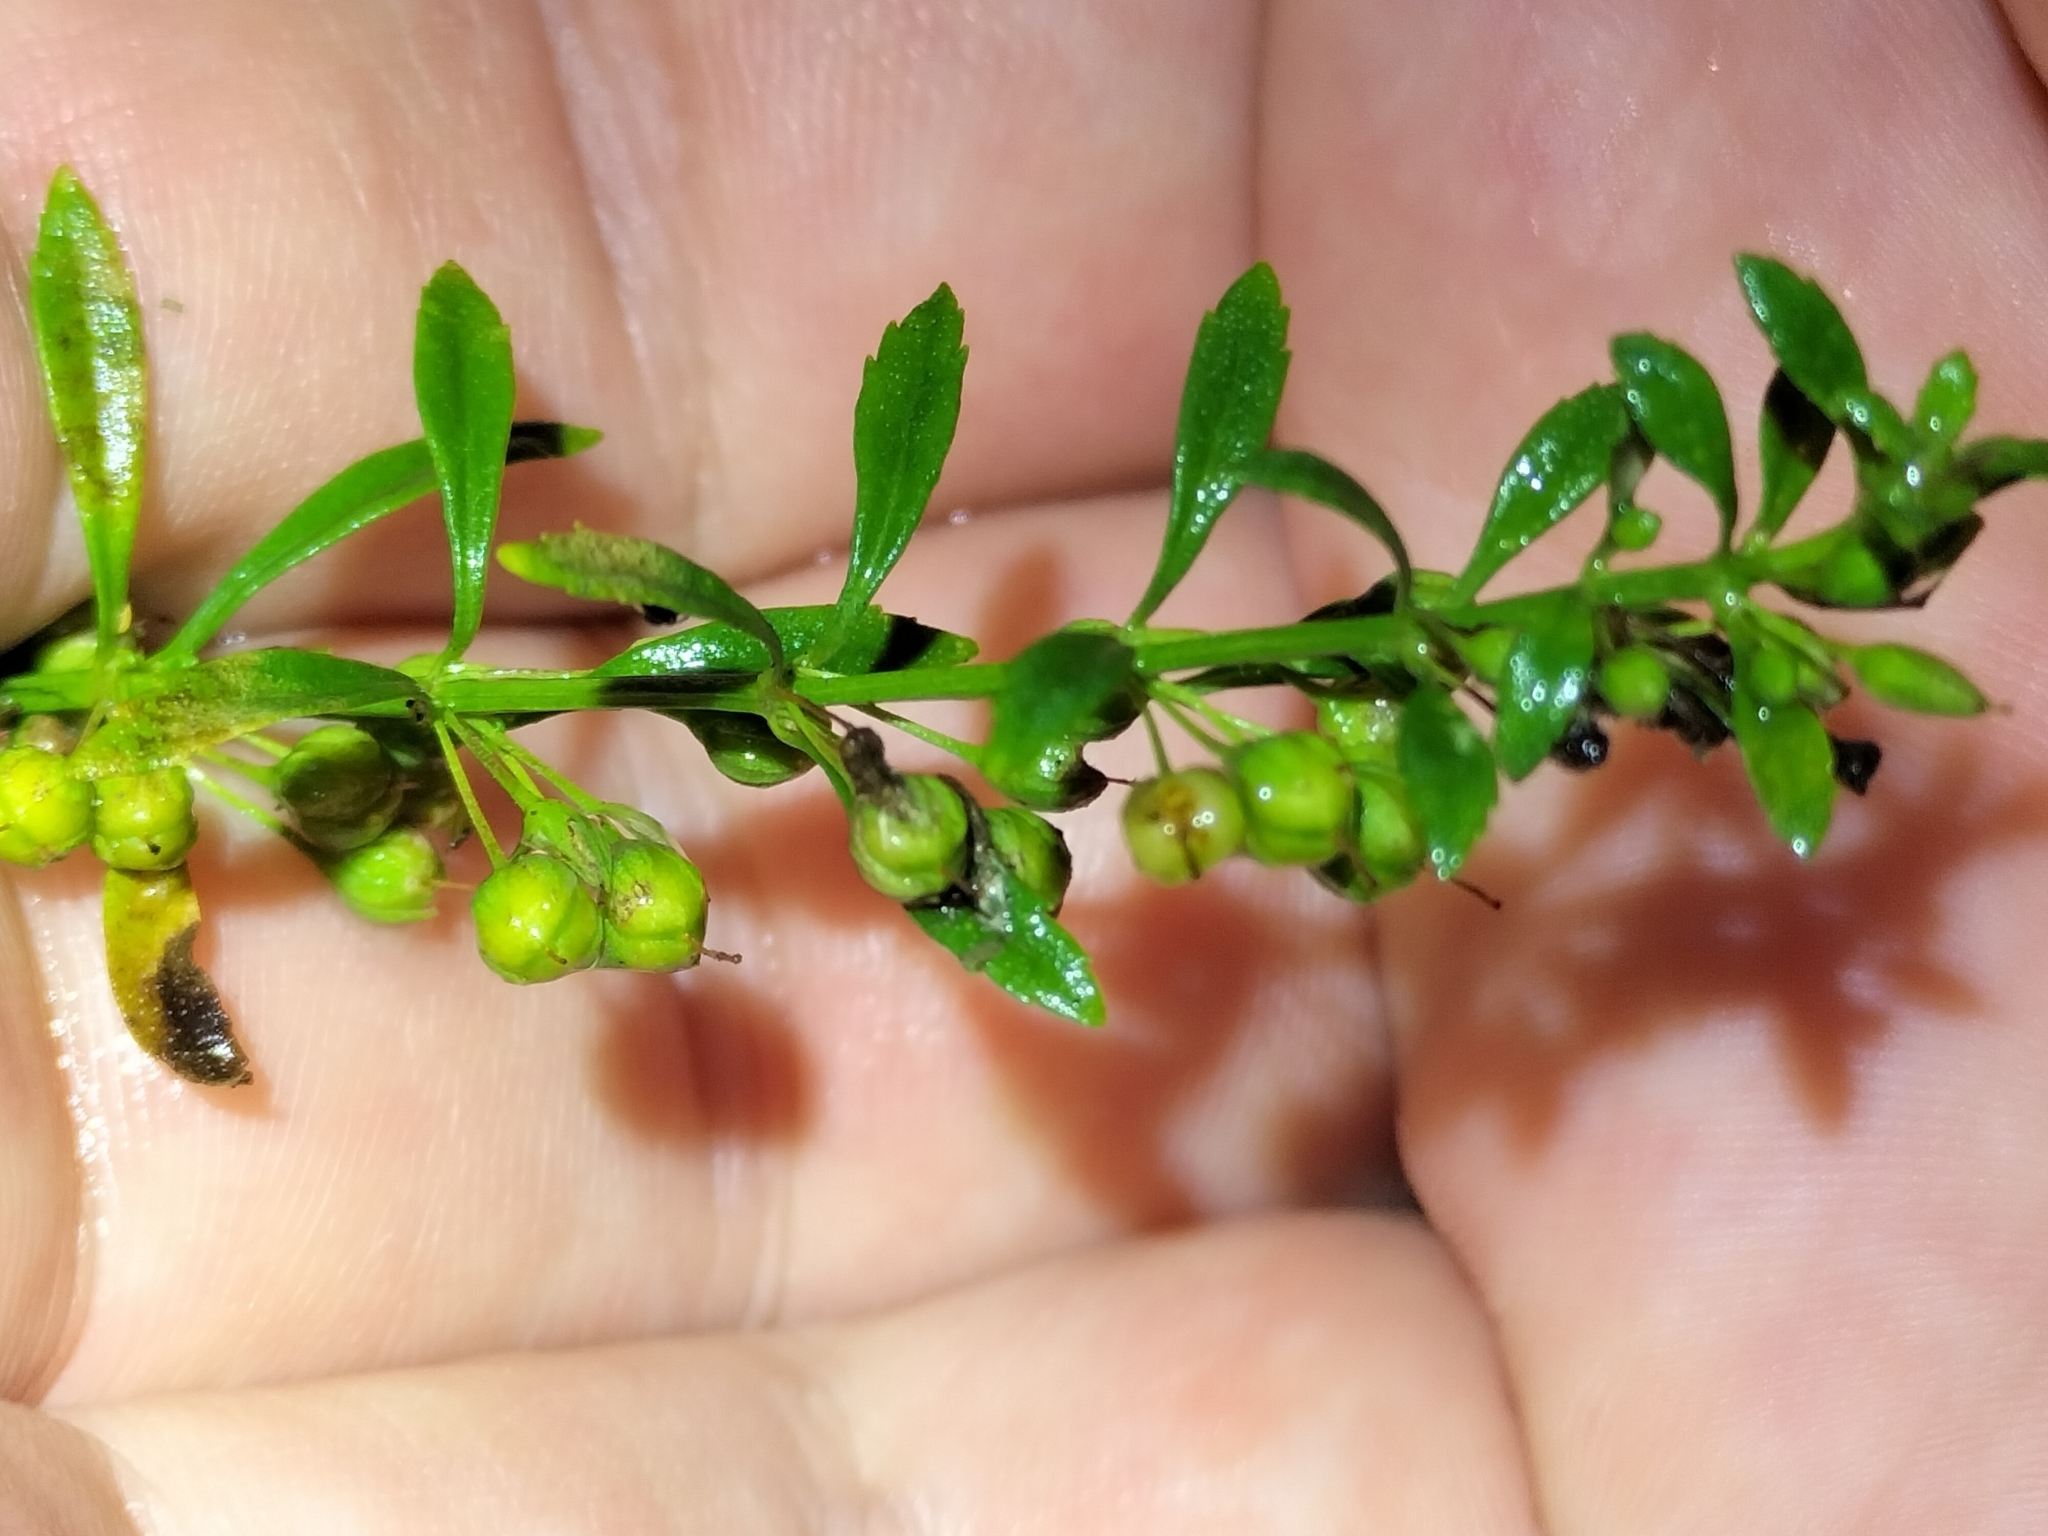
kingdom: Plantae
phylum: Tracheophyta
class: Magnoliopsida
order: Lamiales
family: Plantaginaceae
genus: Scoparia
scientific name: Scoparia dulcis
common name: Scoparia-weed
